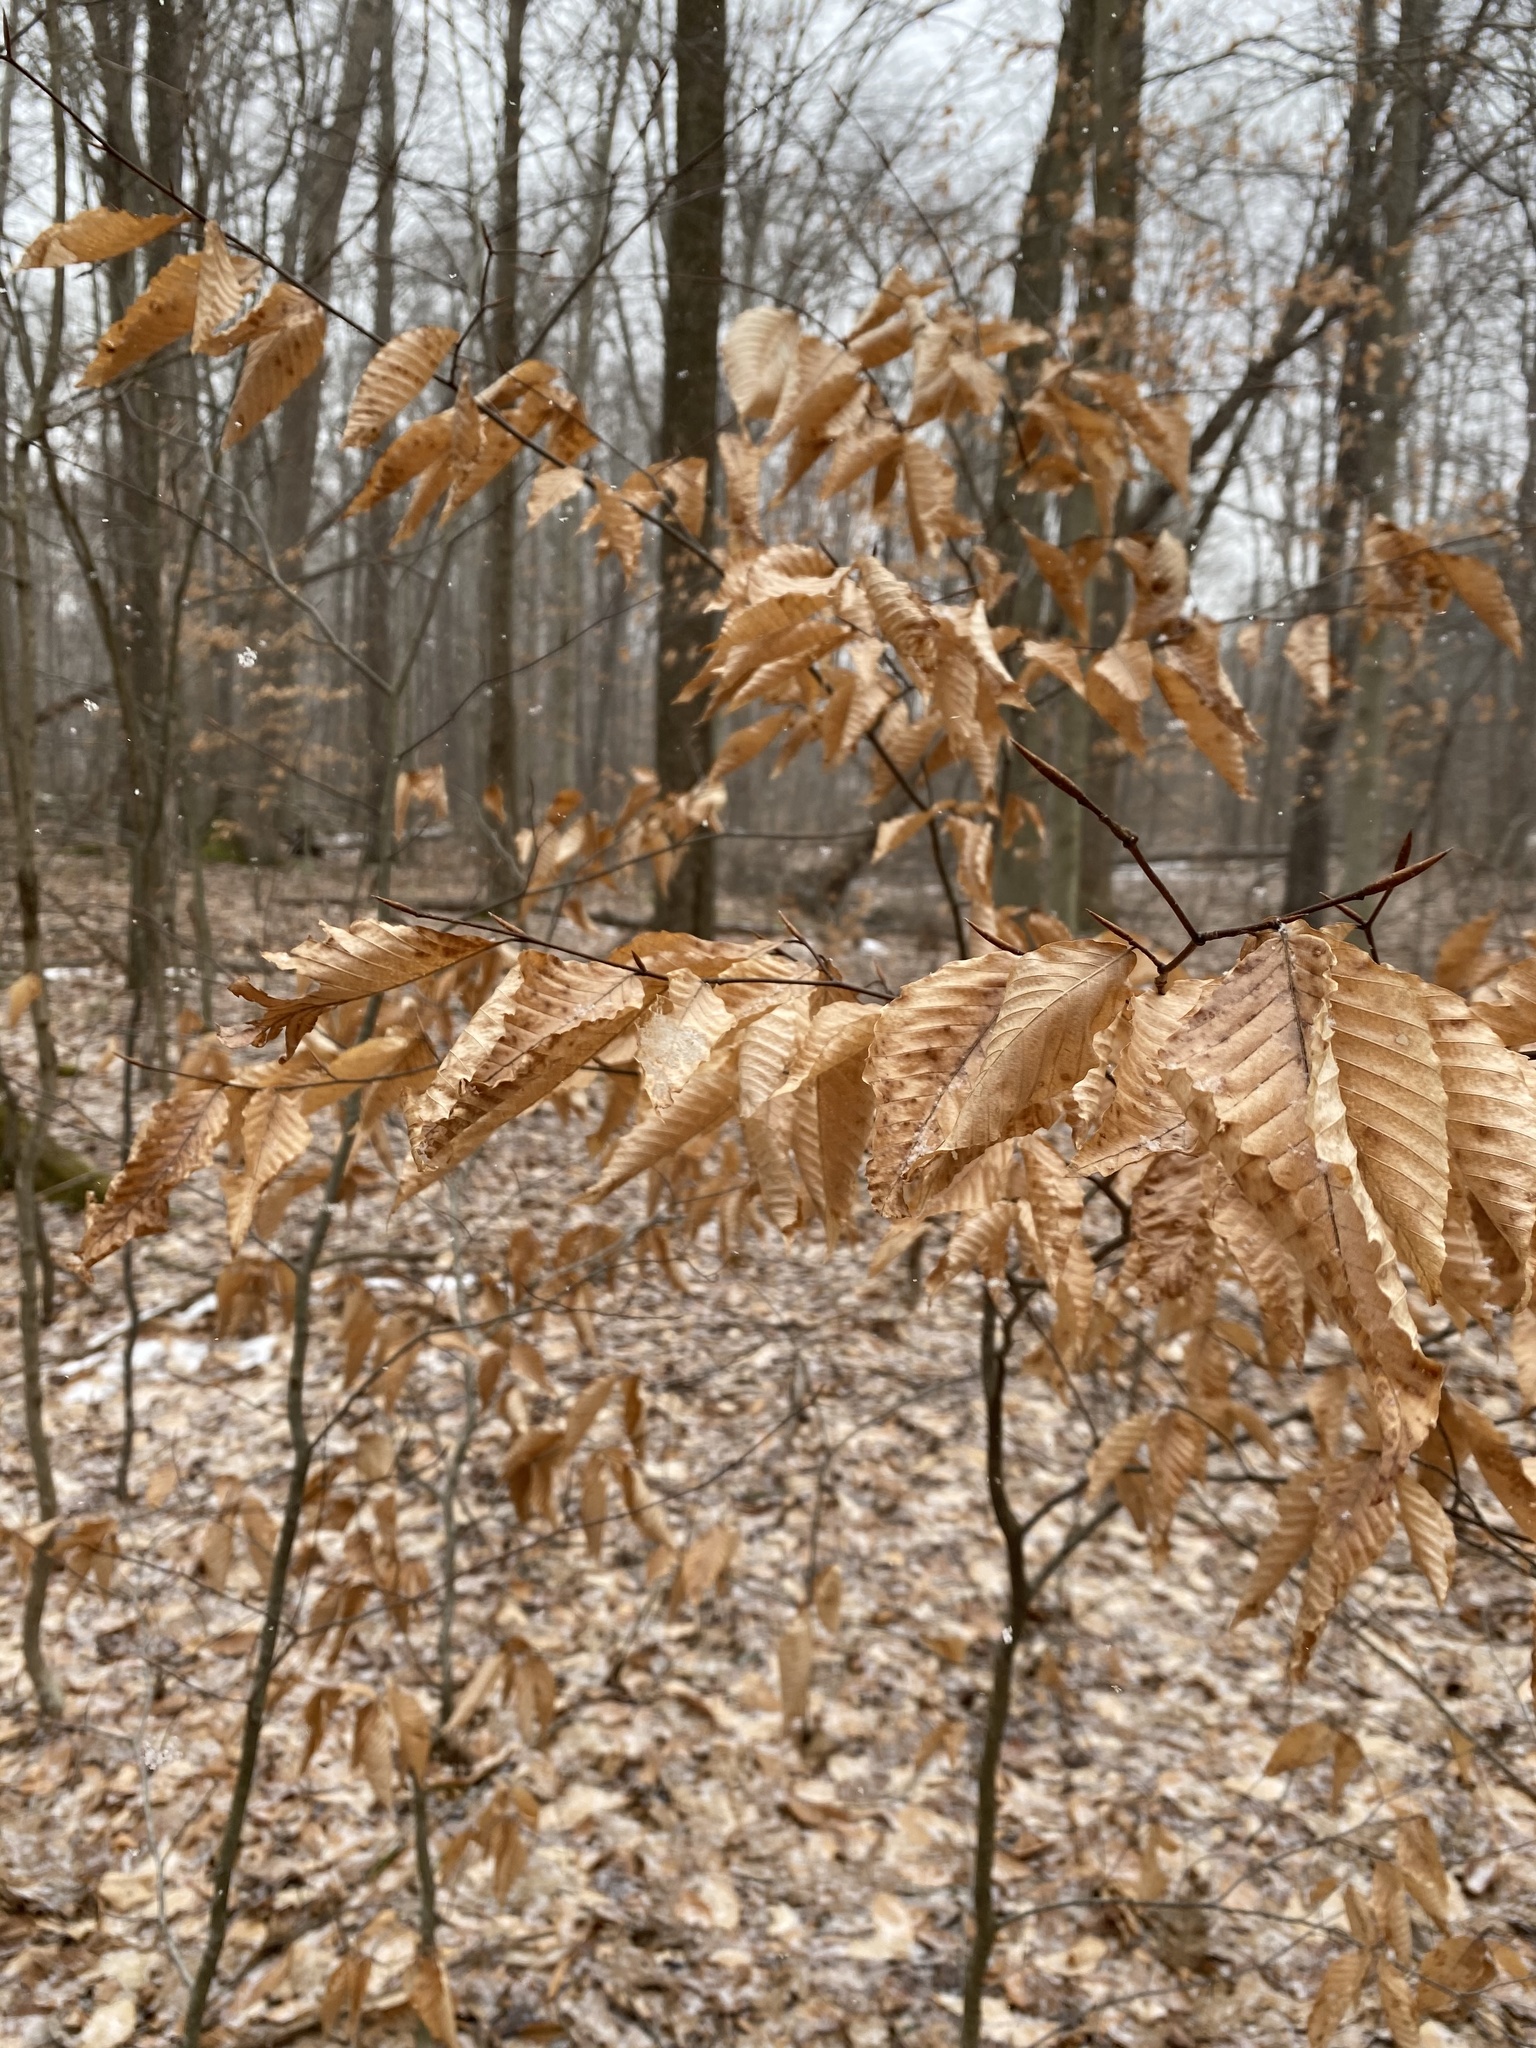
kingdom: Plantae
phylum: Tracheophyta
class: Magnoliopsida
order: Fagales
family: Fagaceae
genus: Fagus
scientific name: Fagus grandifolia
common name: American beech
